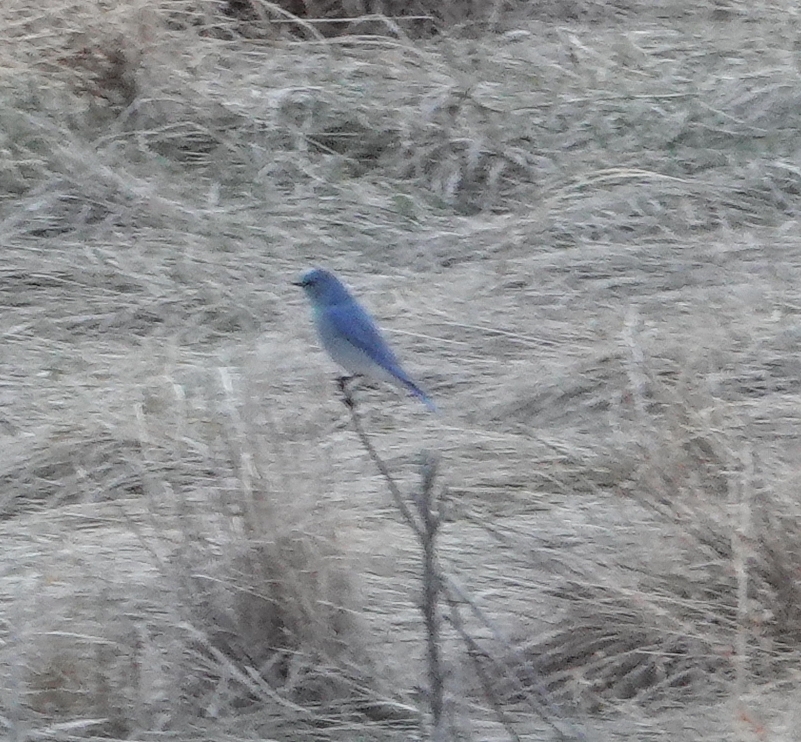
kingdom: Animalia
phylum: Chordata
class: Aves
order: Passeriformes
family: Turdidae
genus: Sialia
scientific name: Sialia currucoides
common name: Mountain bluebird
